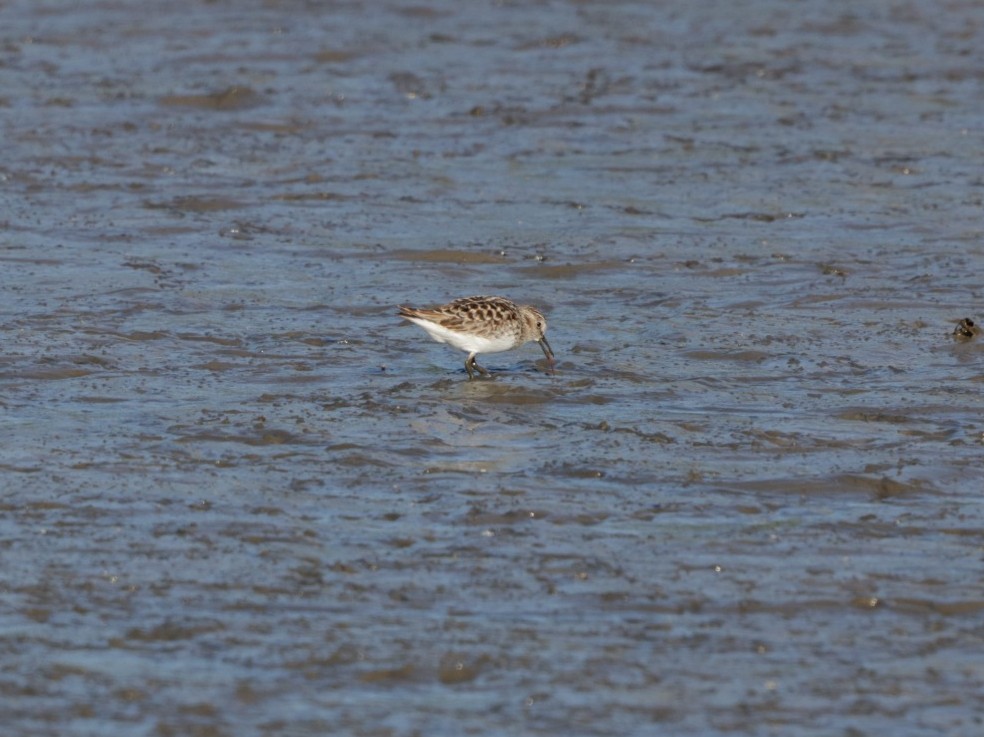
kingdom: Animalia
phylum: Chordata
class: Aves
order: Charadriiformes
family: Scolopacidae
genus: Calidris
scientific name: Calidris minutilla
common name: Least sandpiper
